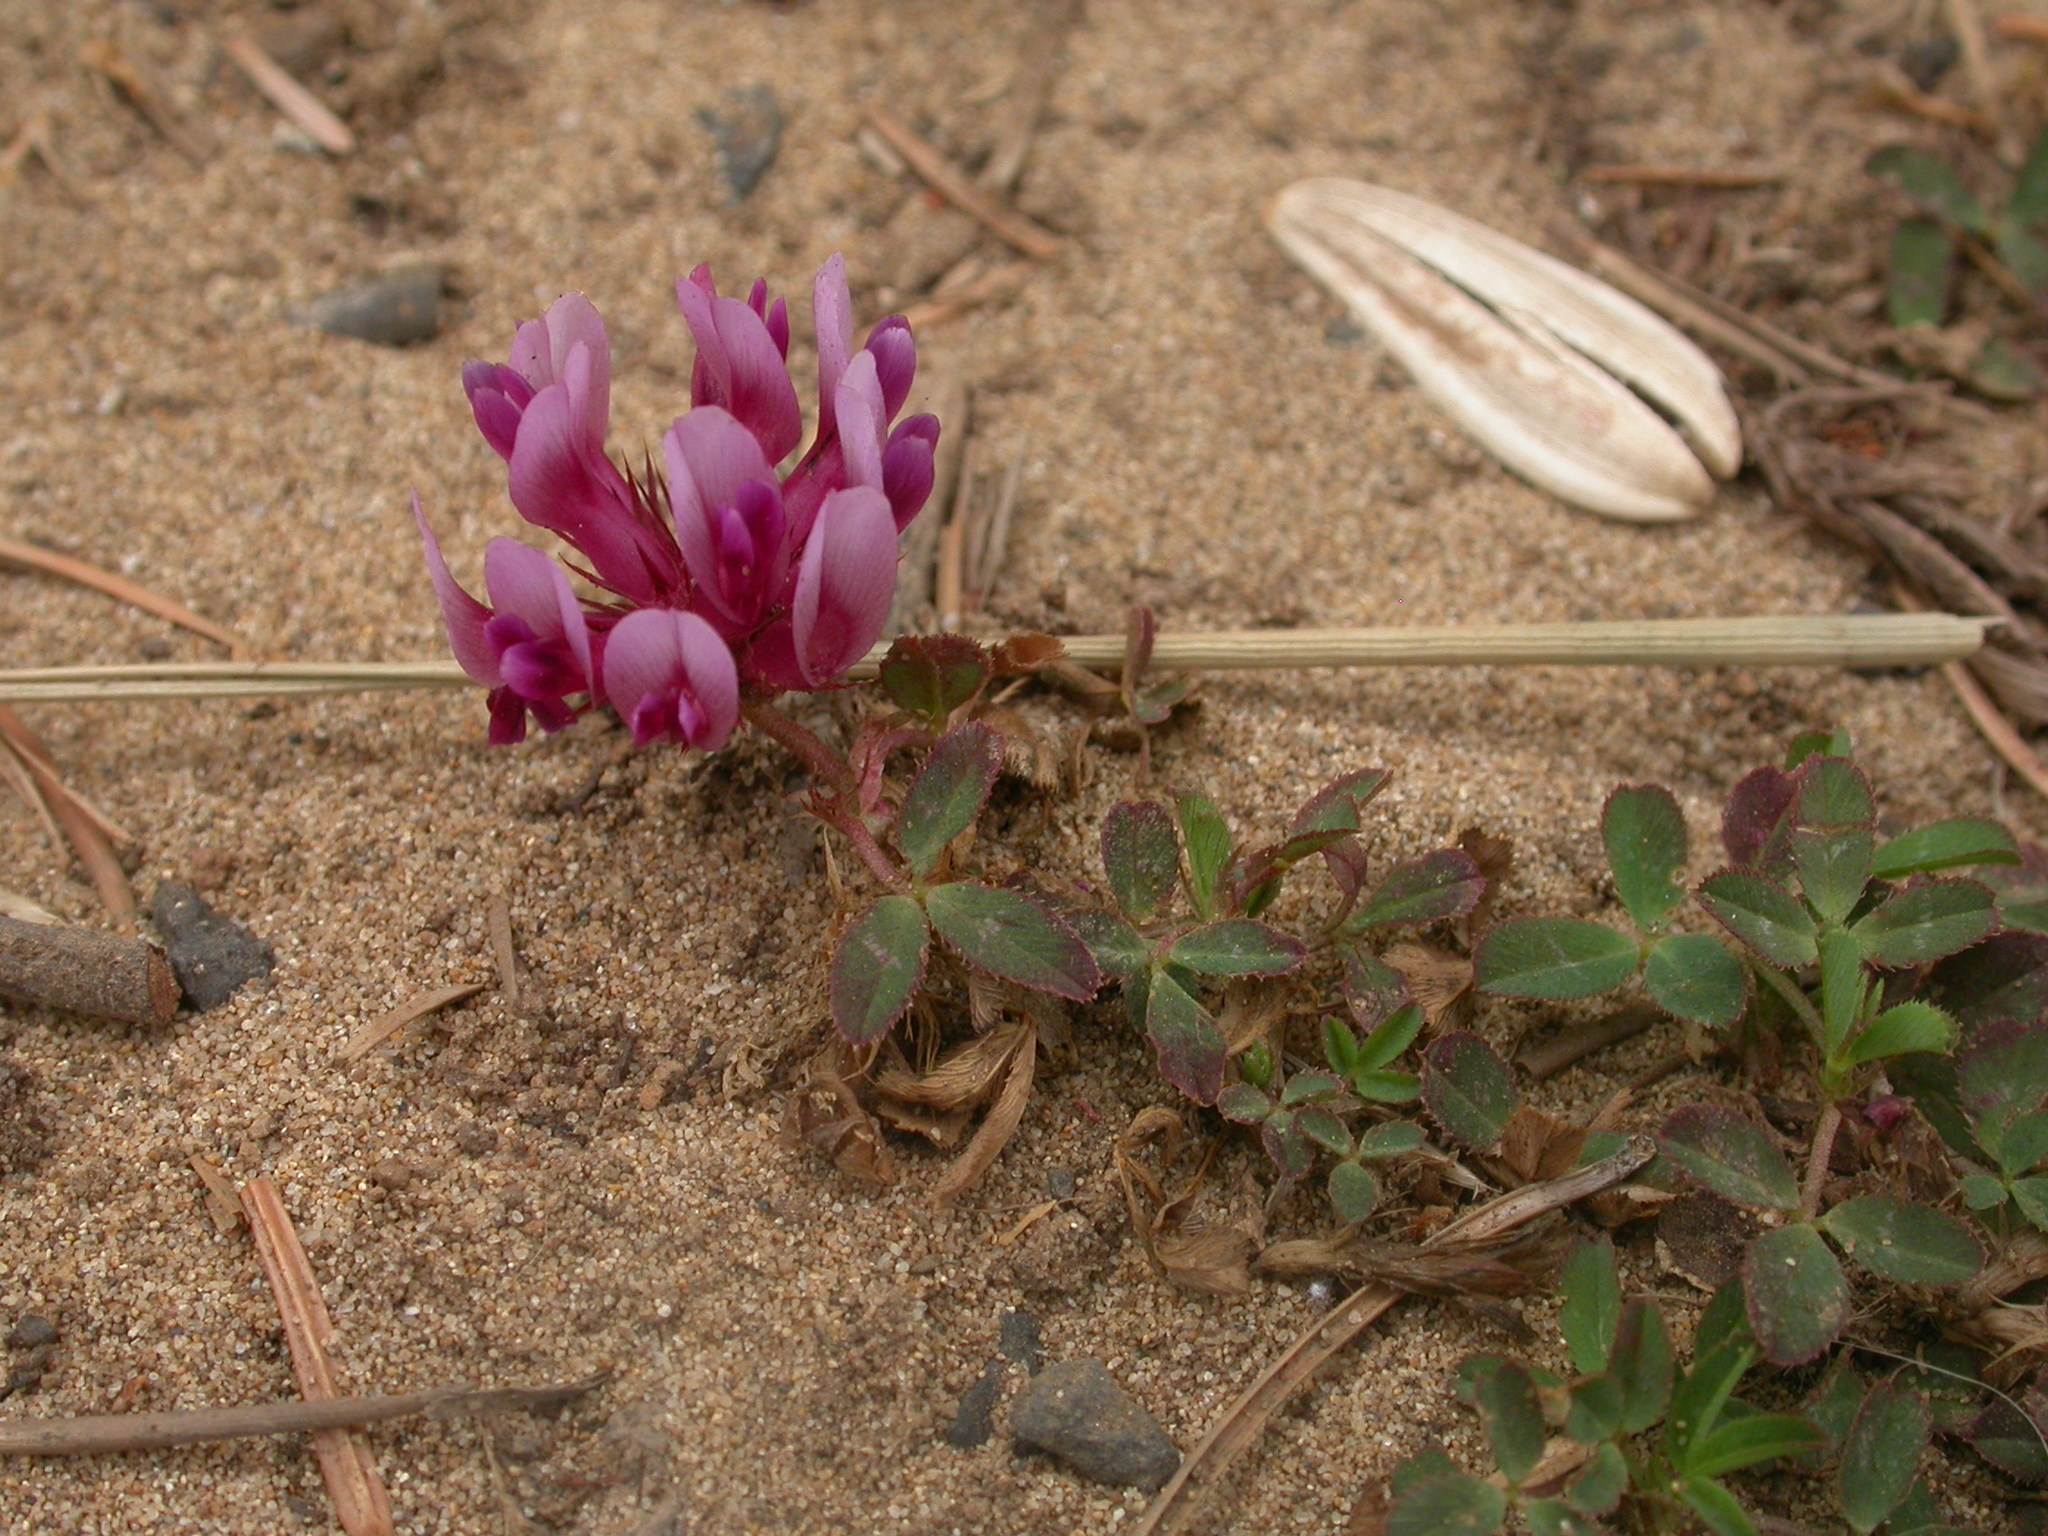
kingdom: Plantae
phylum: Tracheophyta
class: Magnoliopsida
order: Fabales
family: Fabaceae
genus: Trifolium
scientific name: Trifolium wormskioldii
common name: Springbank clover
